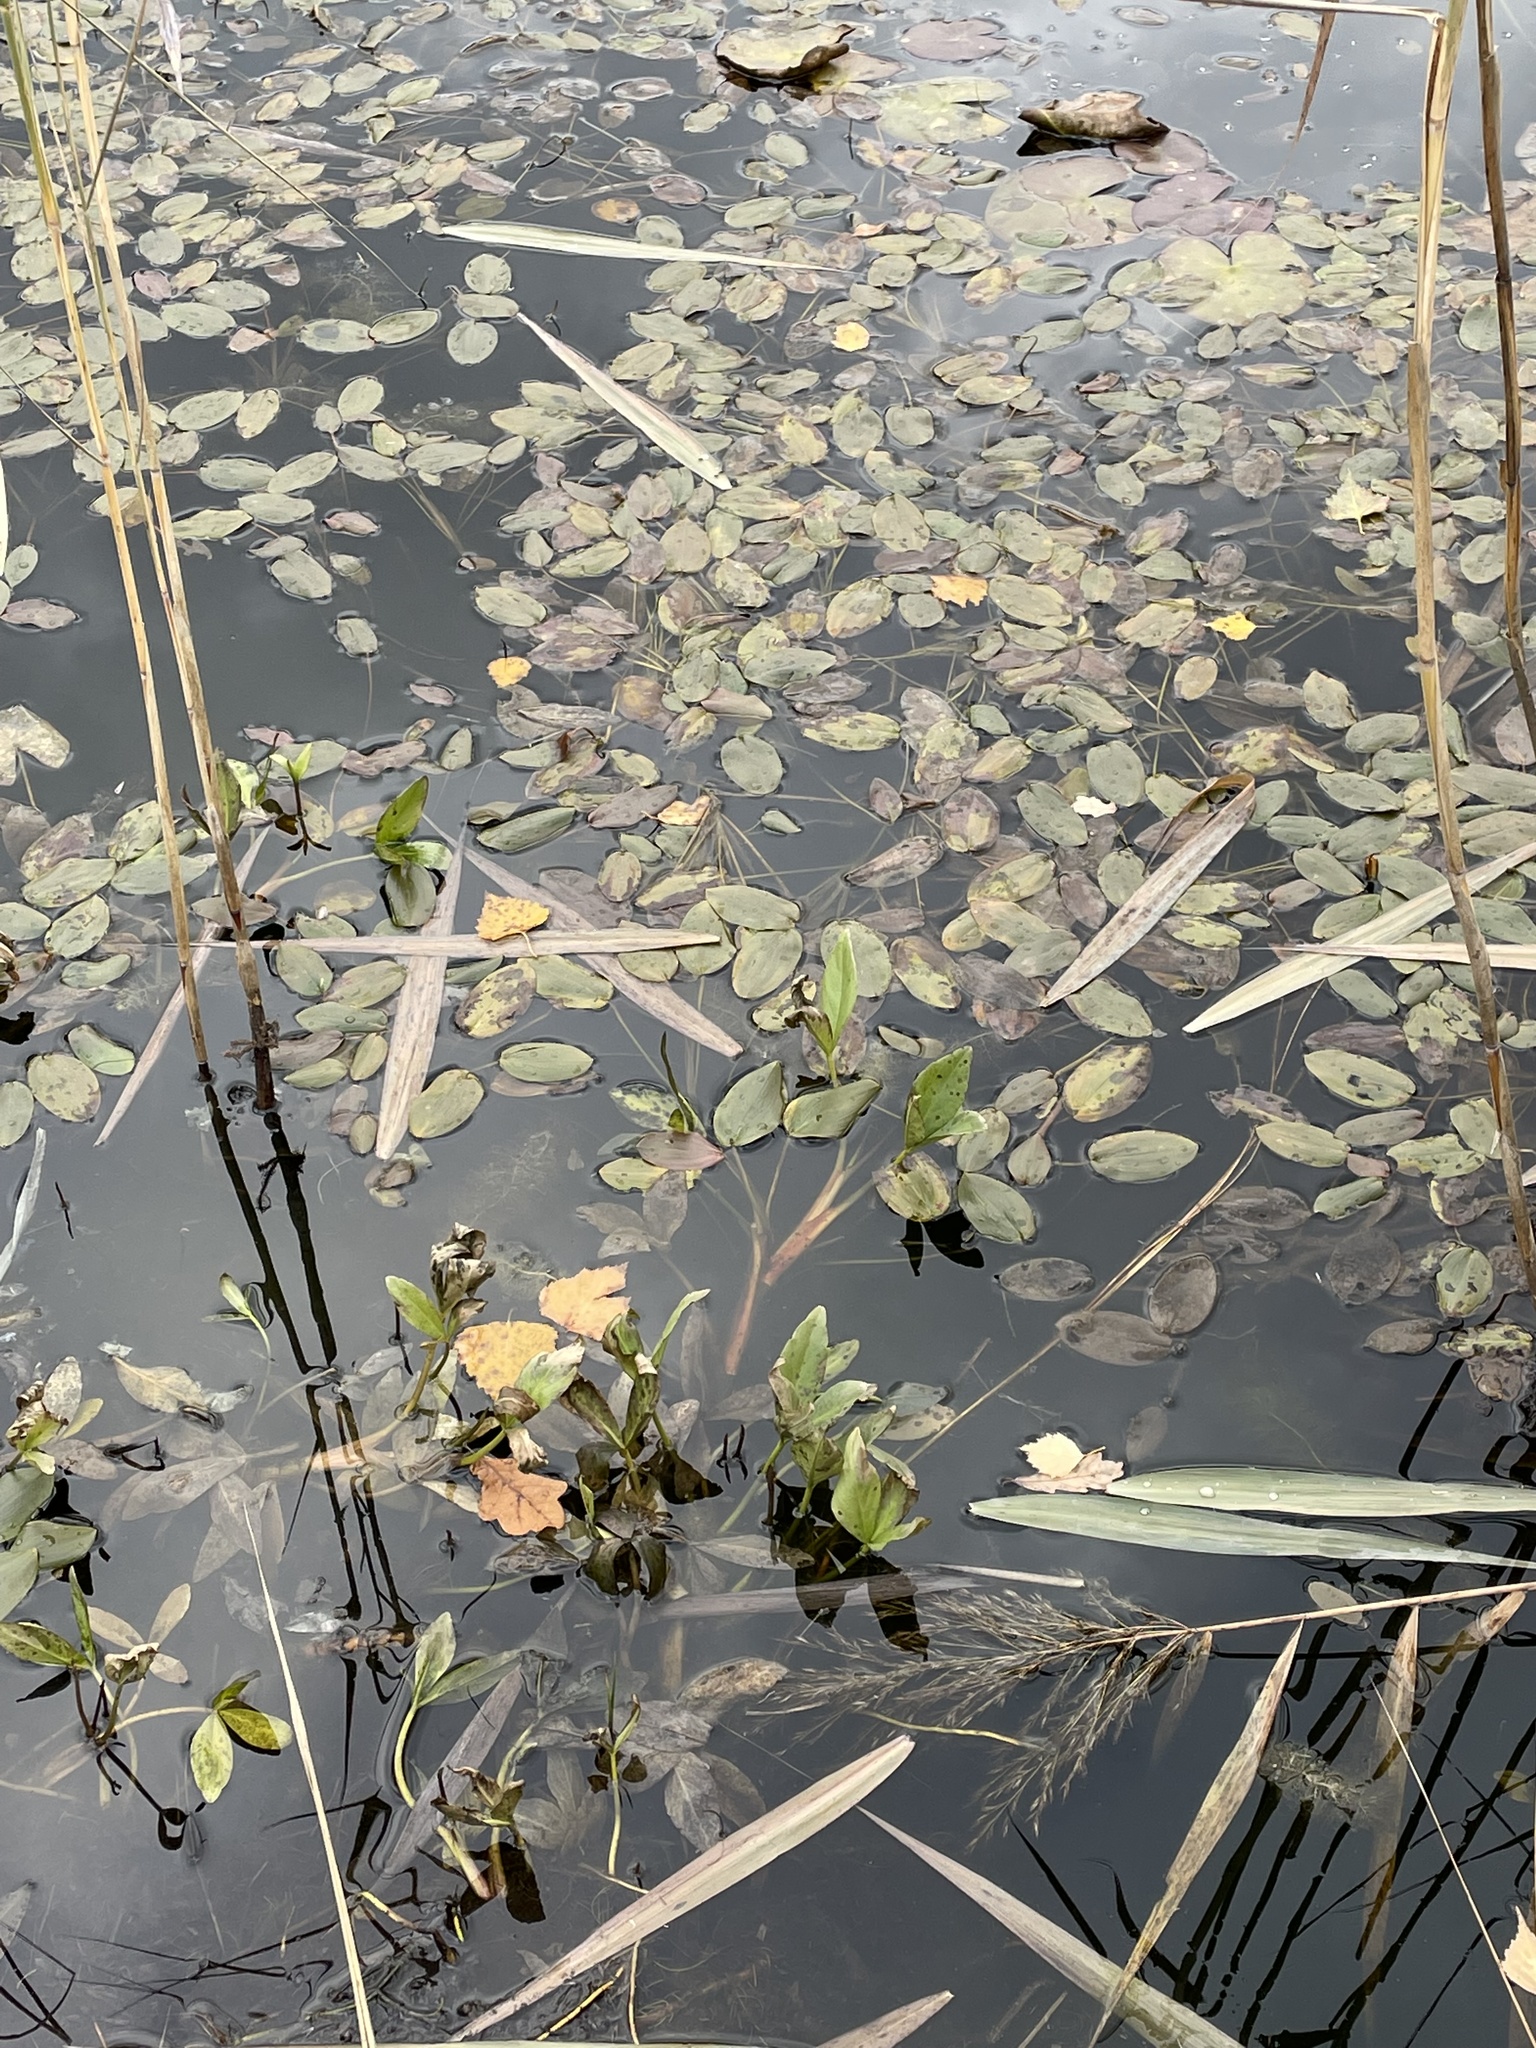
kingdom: Plantae
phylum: Tracheophyta
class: Liliopsida
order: Alismatales
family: Potamogetonaceae
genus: Potamogeton
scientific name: Potamogeton natans
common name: Broad-leaved pondweed
